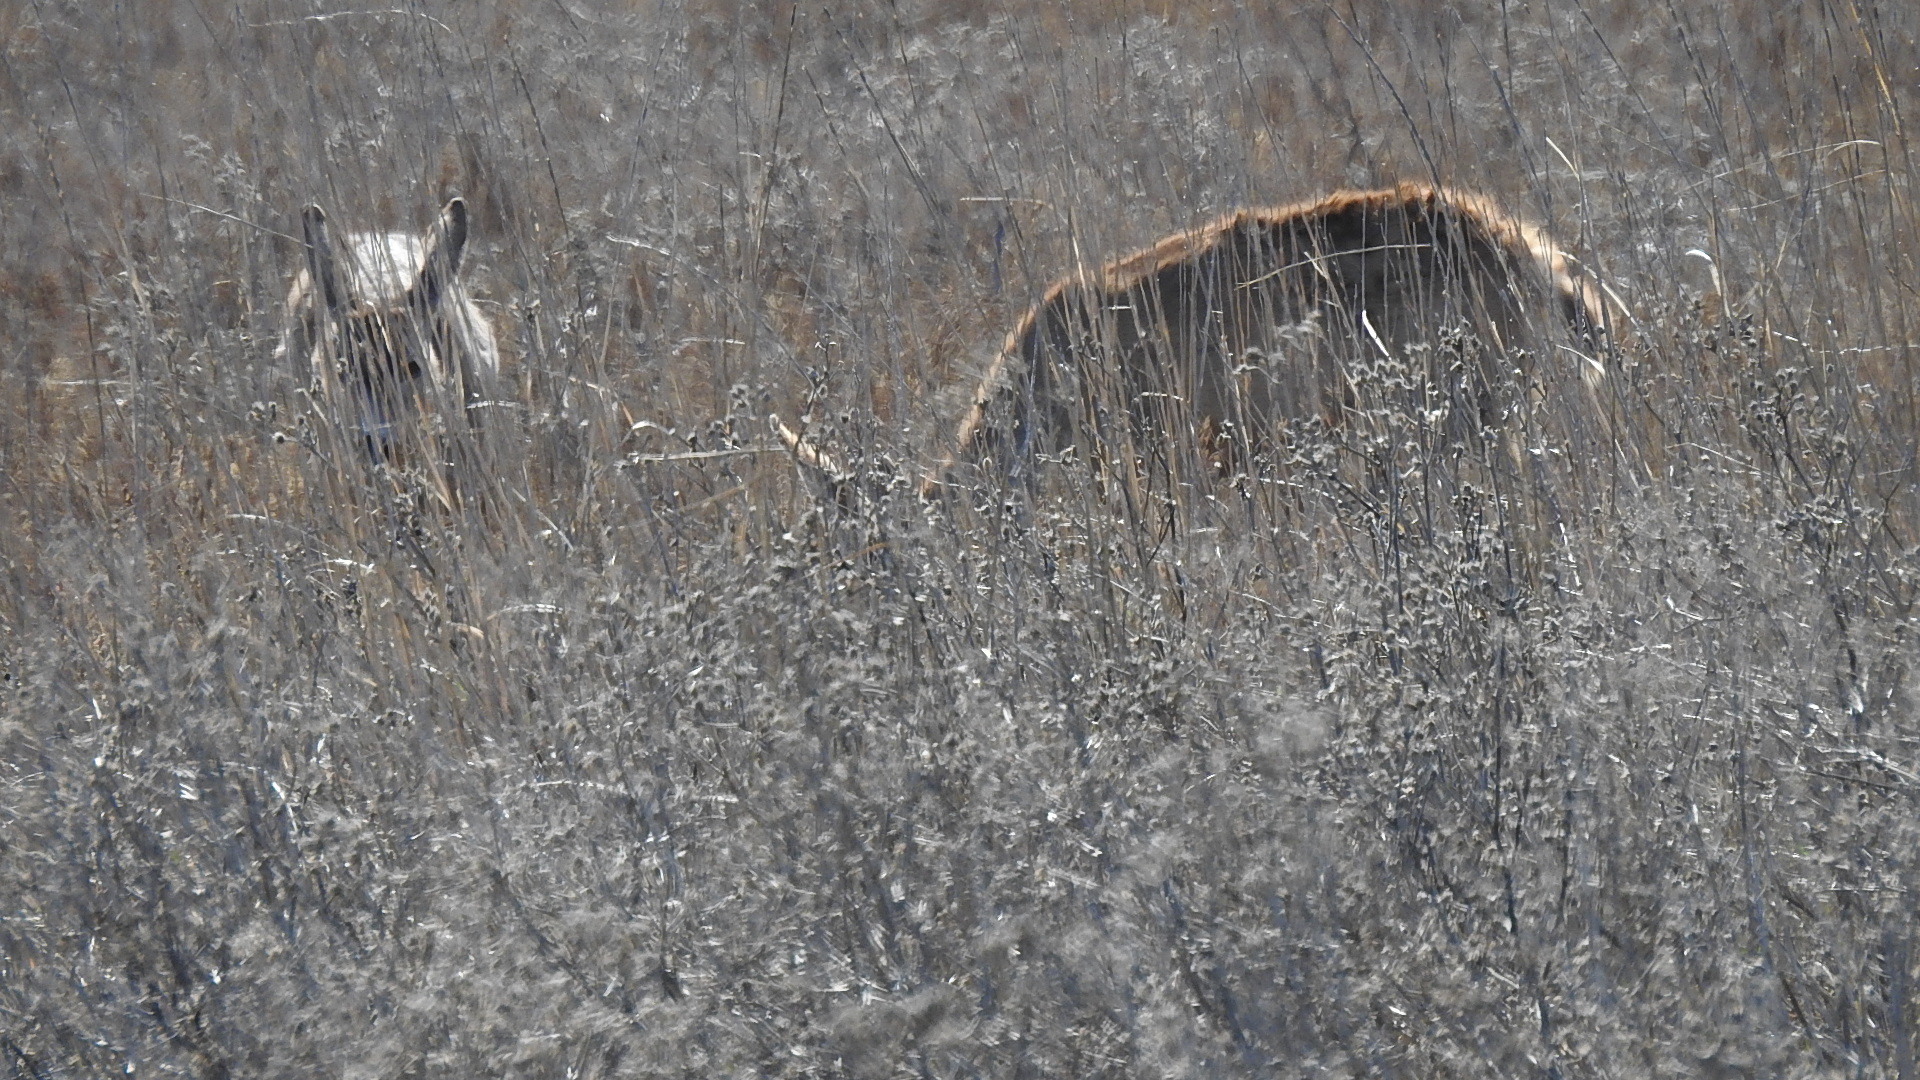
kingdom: Animalia
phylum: Chordata
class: Mammalia
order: Artiodactyla
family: Cervidae
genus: Odocoileus
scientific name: Odocoileus hemionus
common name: Mule deer
